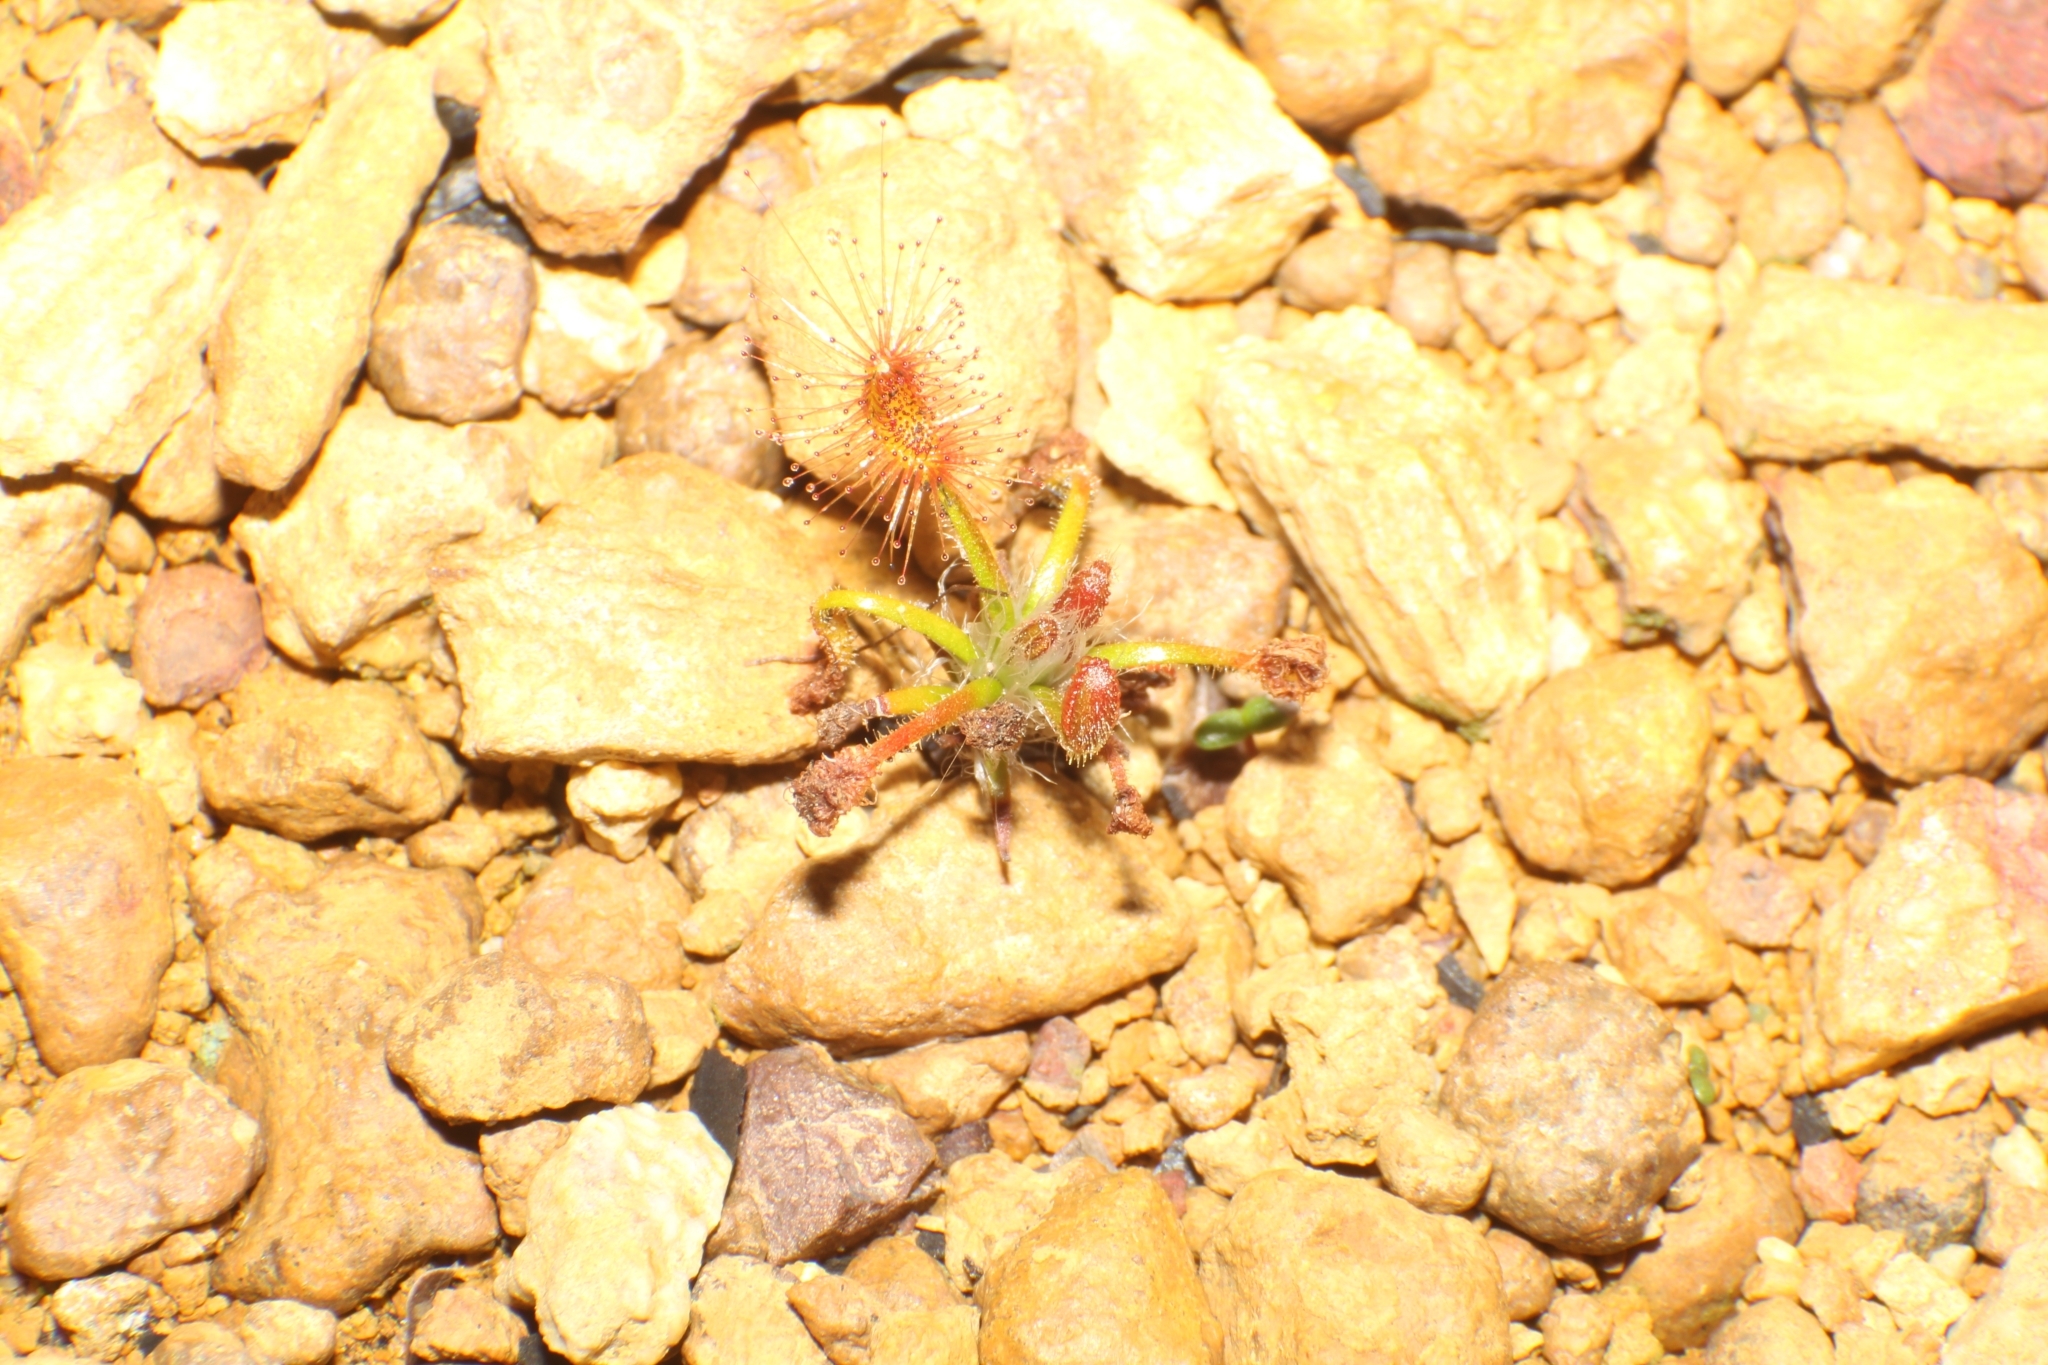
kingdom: Plantae
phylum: Tracheophyta
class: Magnoliopsida
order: Caryophyllales
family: Droseraceae
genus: Drosera
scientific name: Drosera gibsonii
